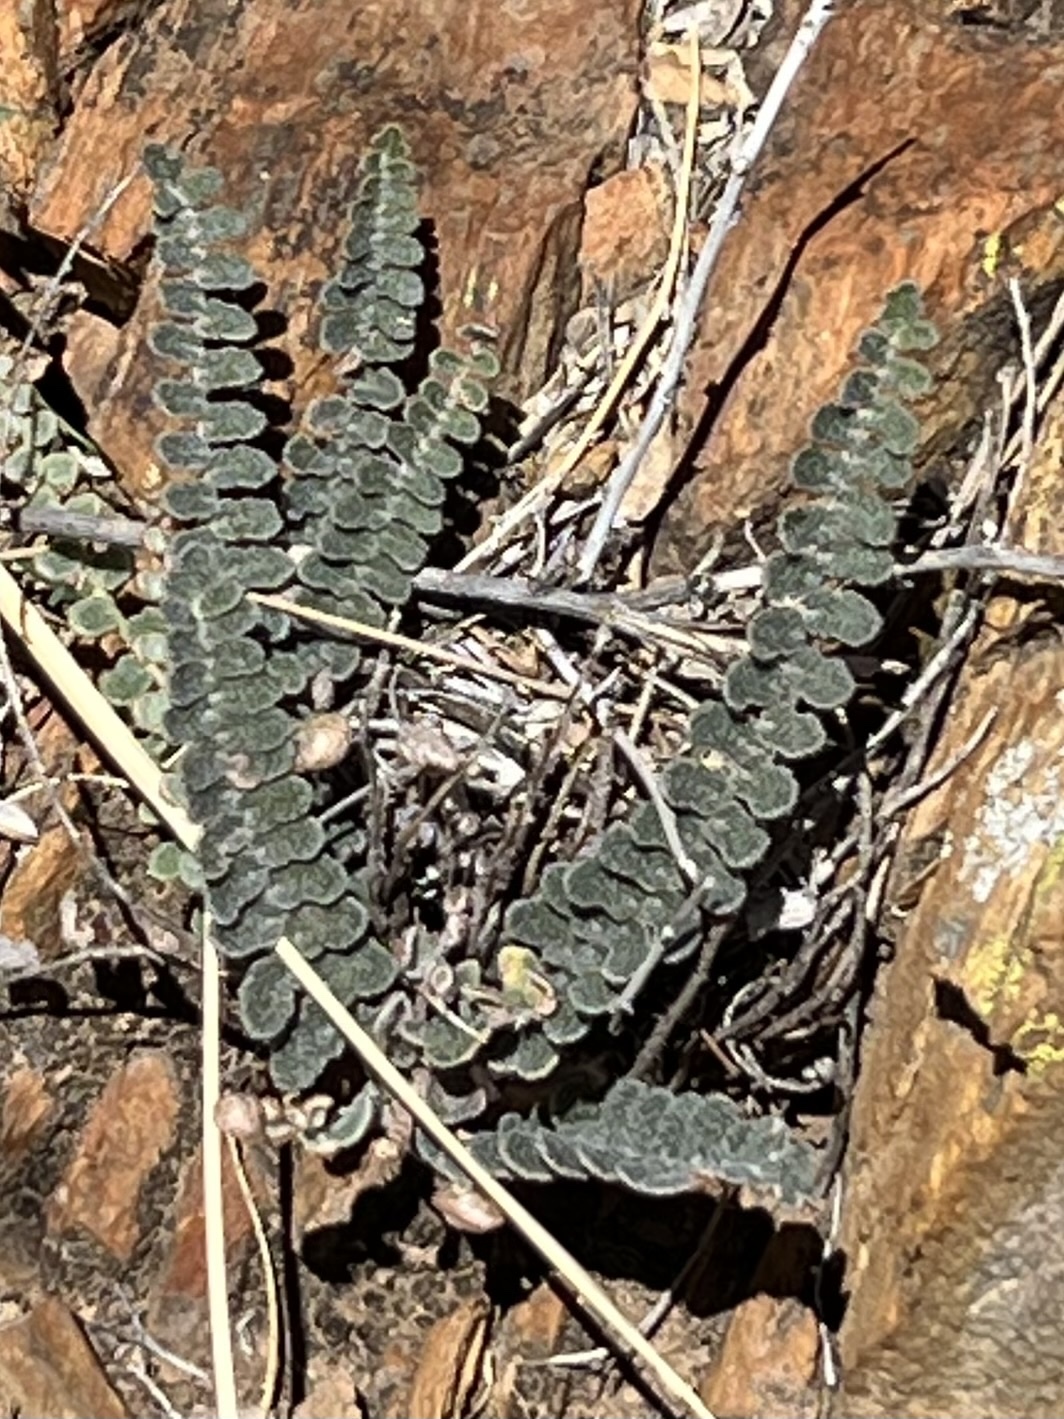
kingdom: Plantae
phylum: Tracheophyta
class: Polypodiopsida
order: Polypodiales
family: Pteridaceae
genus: Astrolepis
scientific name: Astrolepis cochisensis
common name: Scaly cloak fern
